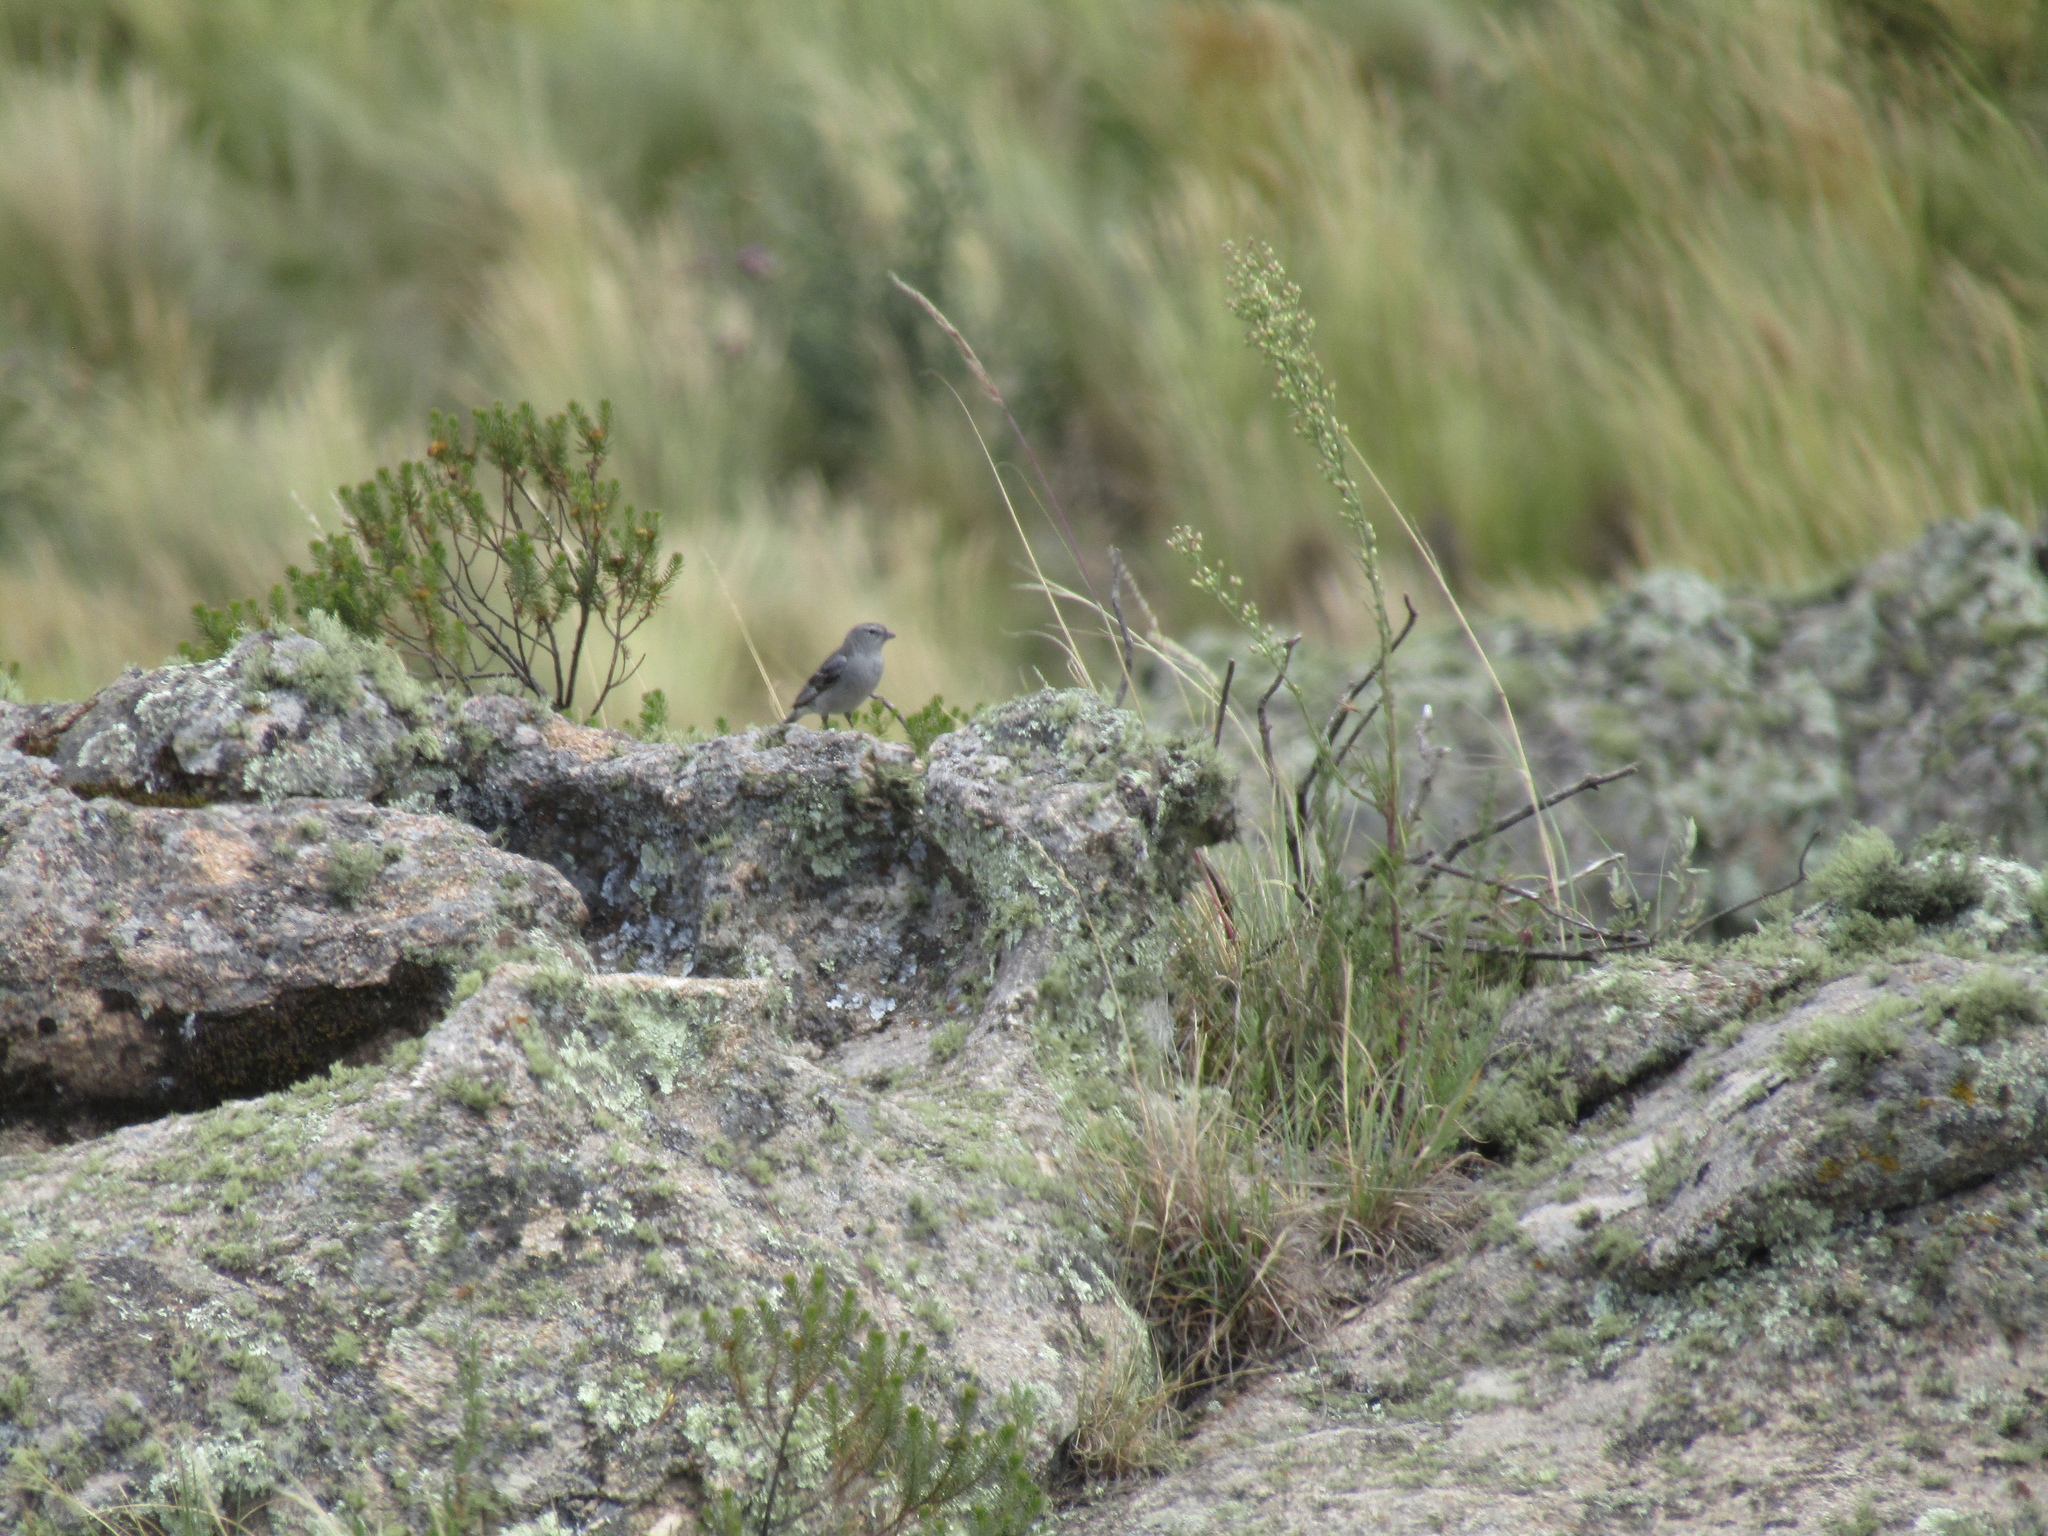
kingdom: Animalia
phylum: Chordata
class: Aves
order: Passeriformes
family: Thraupidae
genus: Geospizopsis
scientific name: Geospizopsis plebejus
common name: Ash-breasted sierra-finch
